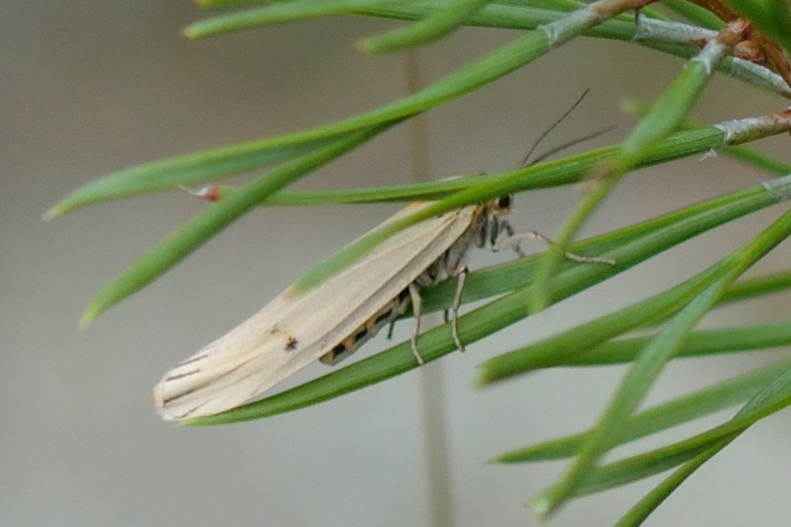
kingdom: Animalia
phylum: Arthropoda
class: Insecta
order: Lepidoptera
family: Erebidae
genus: Coscinia
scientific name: Coscinia Spiris striata
